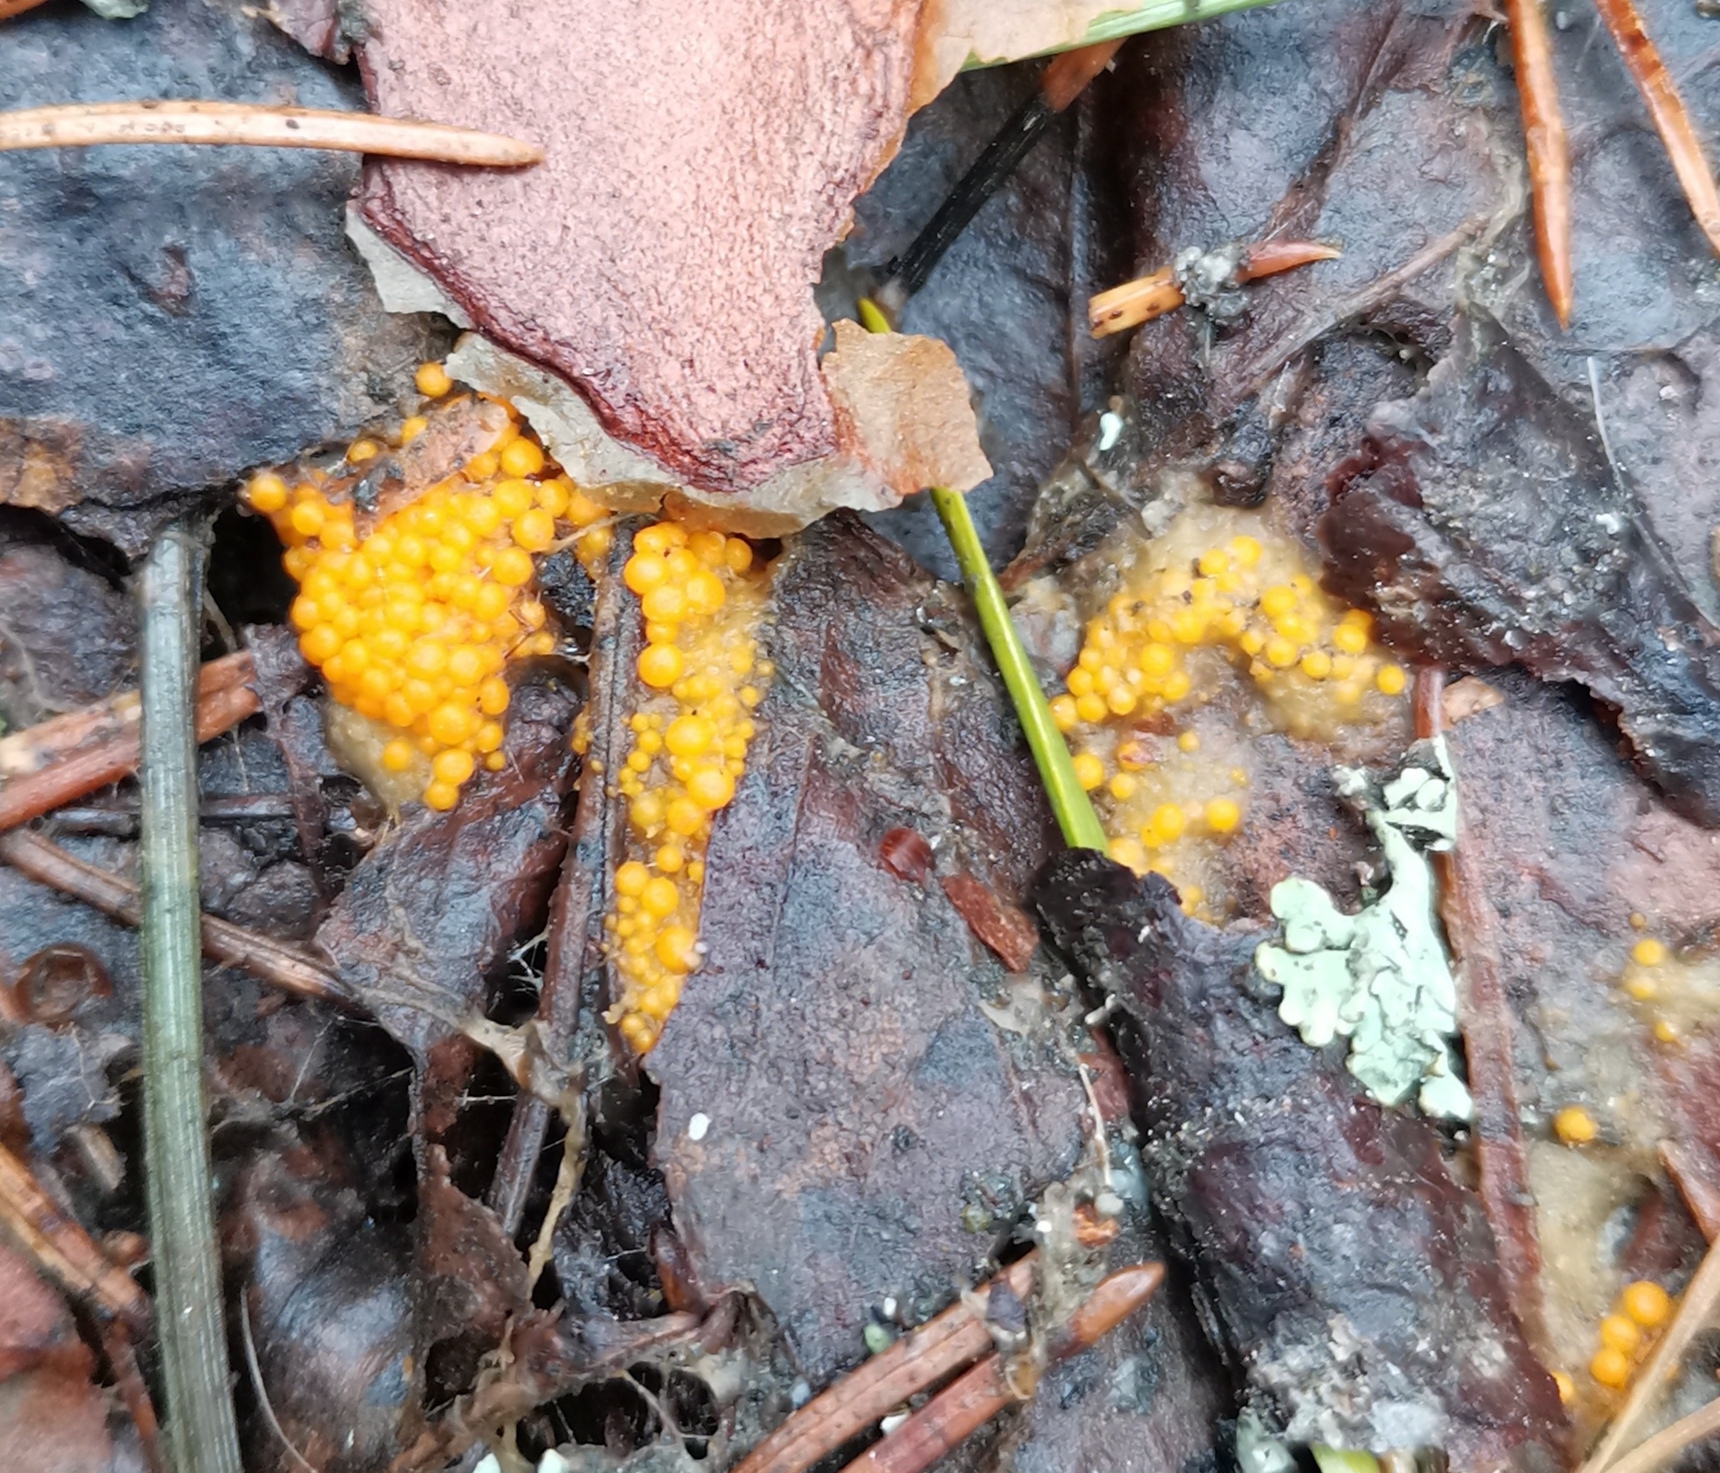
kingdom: Fungi
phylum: Ascomycota
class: Pezizomycetes
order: Pezizales
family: Pyronemataceae
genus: Byssonectria
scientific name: Byssonectria terrestris
